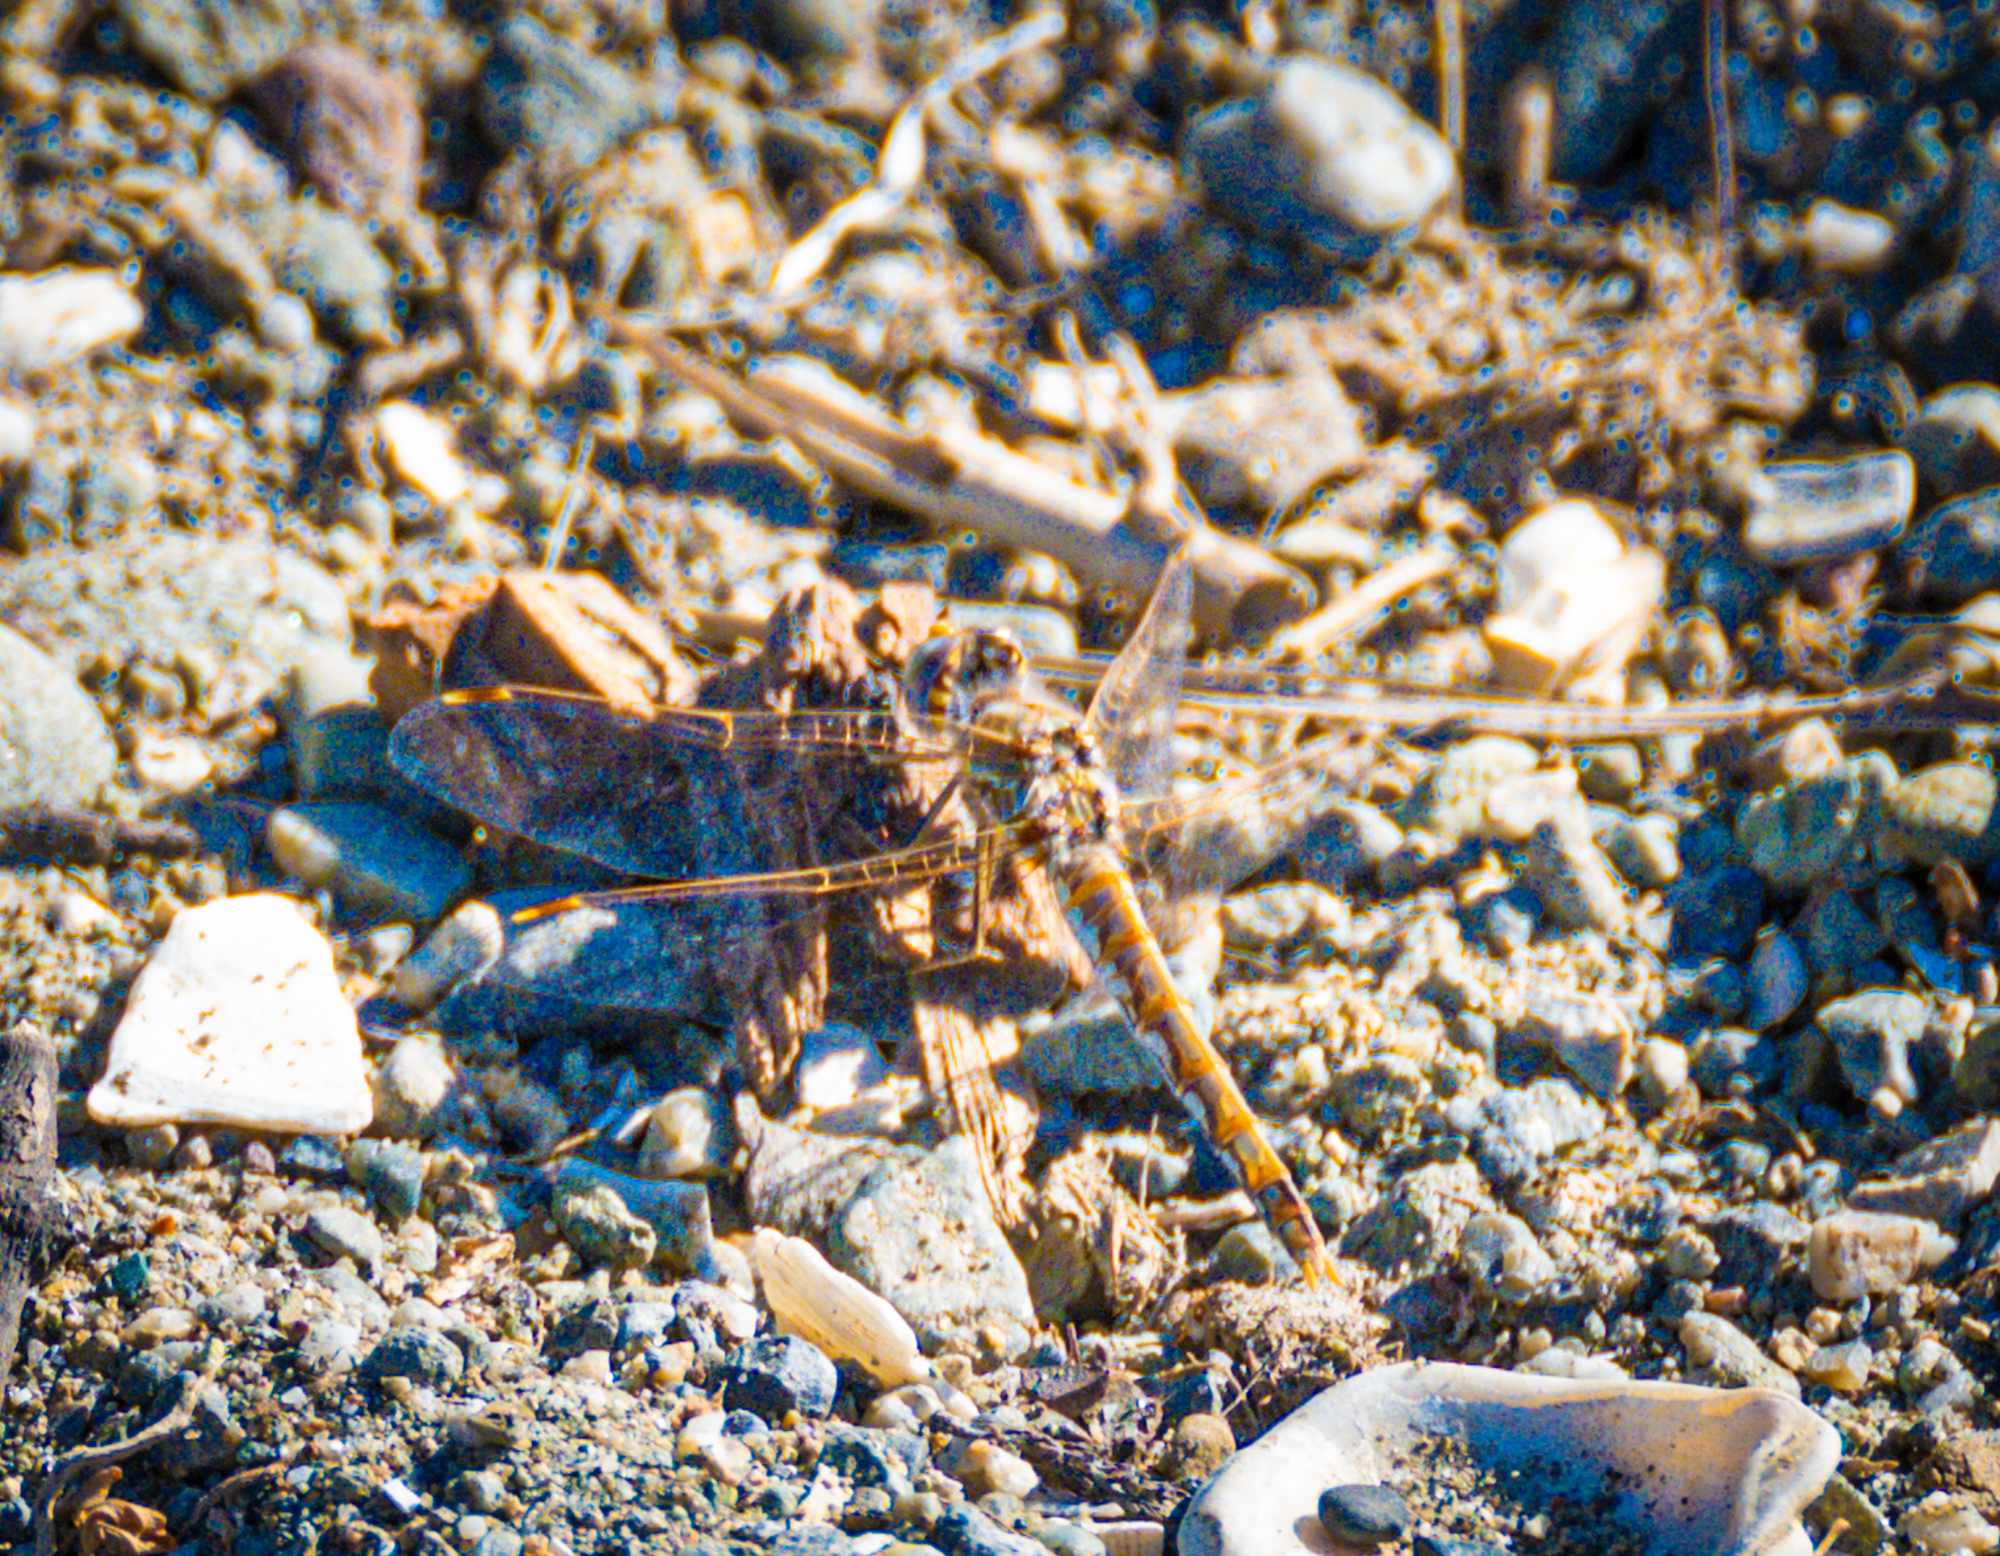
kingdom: Animalia
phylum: Arthropoda
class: Insecta
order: Odonata
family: Libellulidae
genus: Sympetrum
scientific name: Sympetrum corruptum
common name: Variegated meadowhawk
